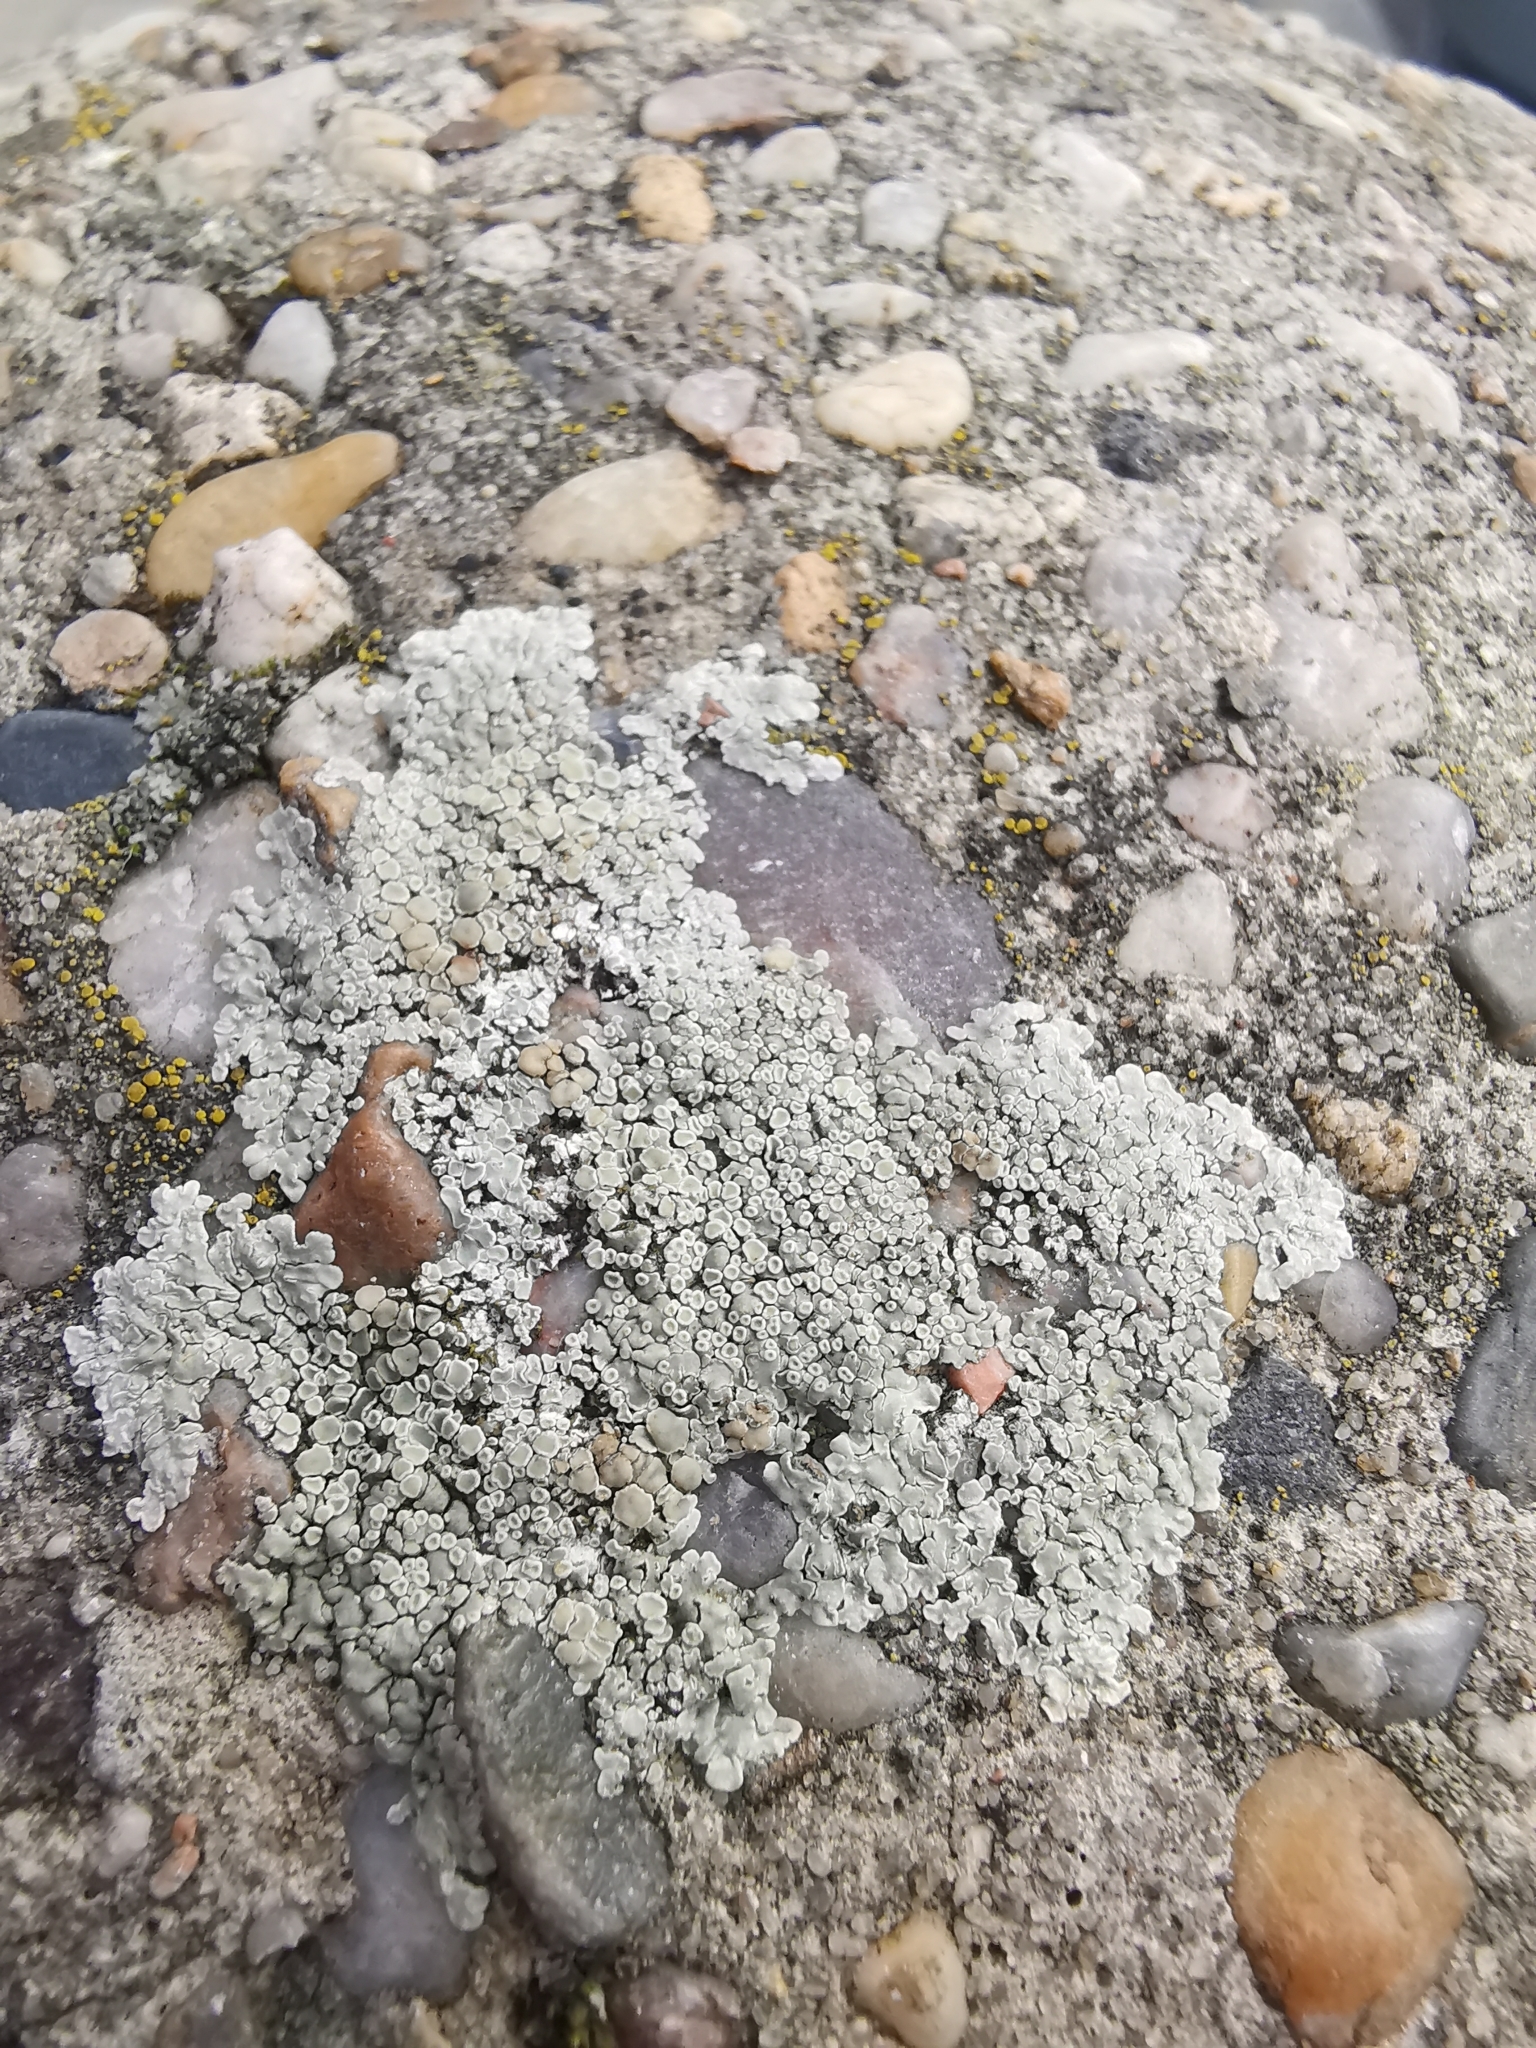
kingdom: Fungi
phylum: Ascomycota
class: Lecanoromycetes
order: Lecanorales
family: Lecanoraceae
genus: Protoparmeliopsis
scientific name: Protoparmeliopsis muralis
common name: Stonewall rim lichen
